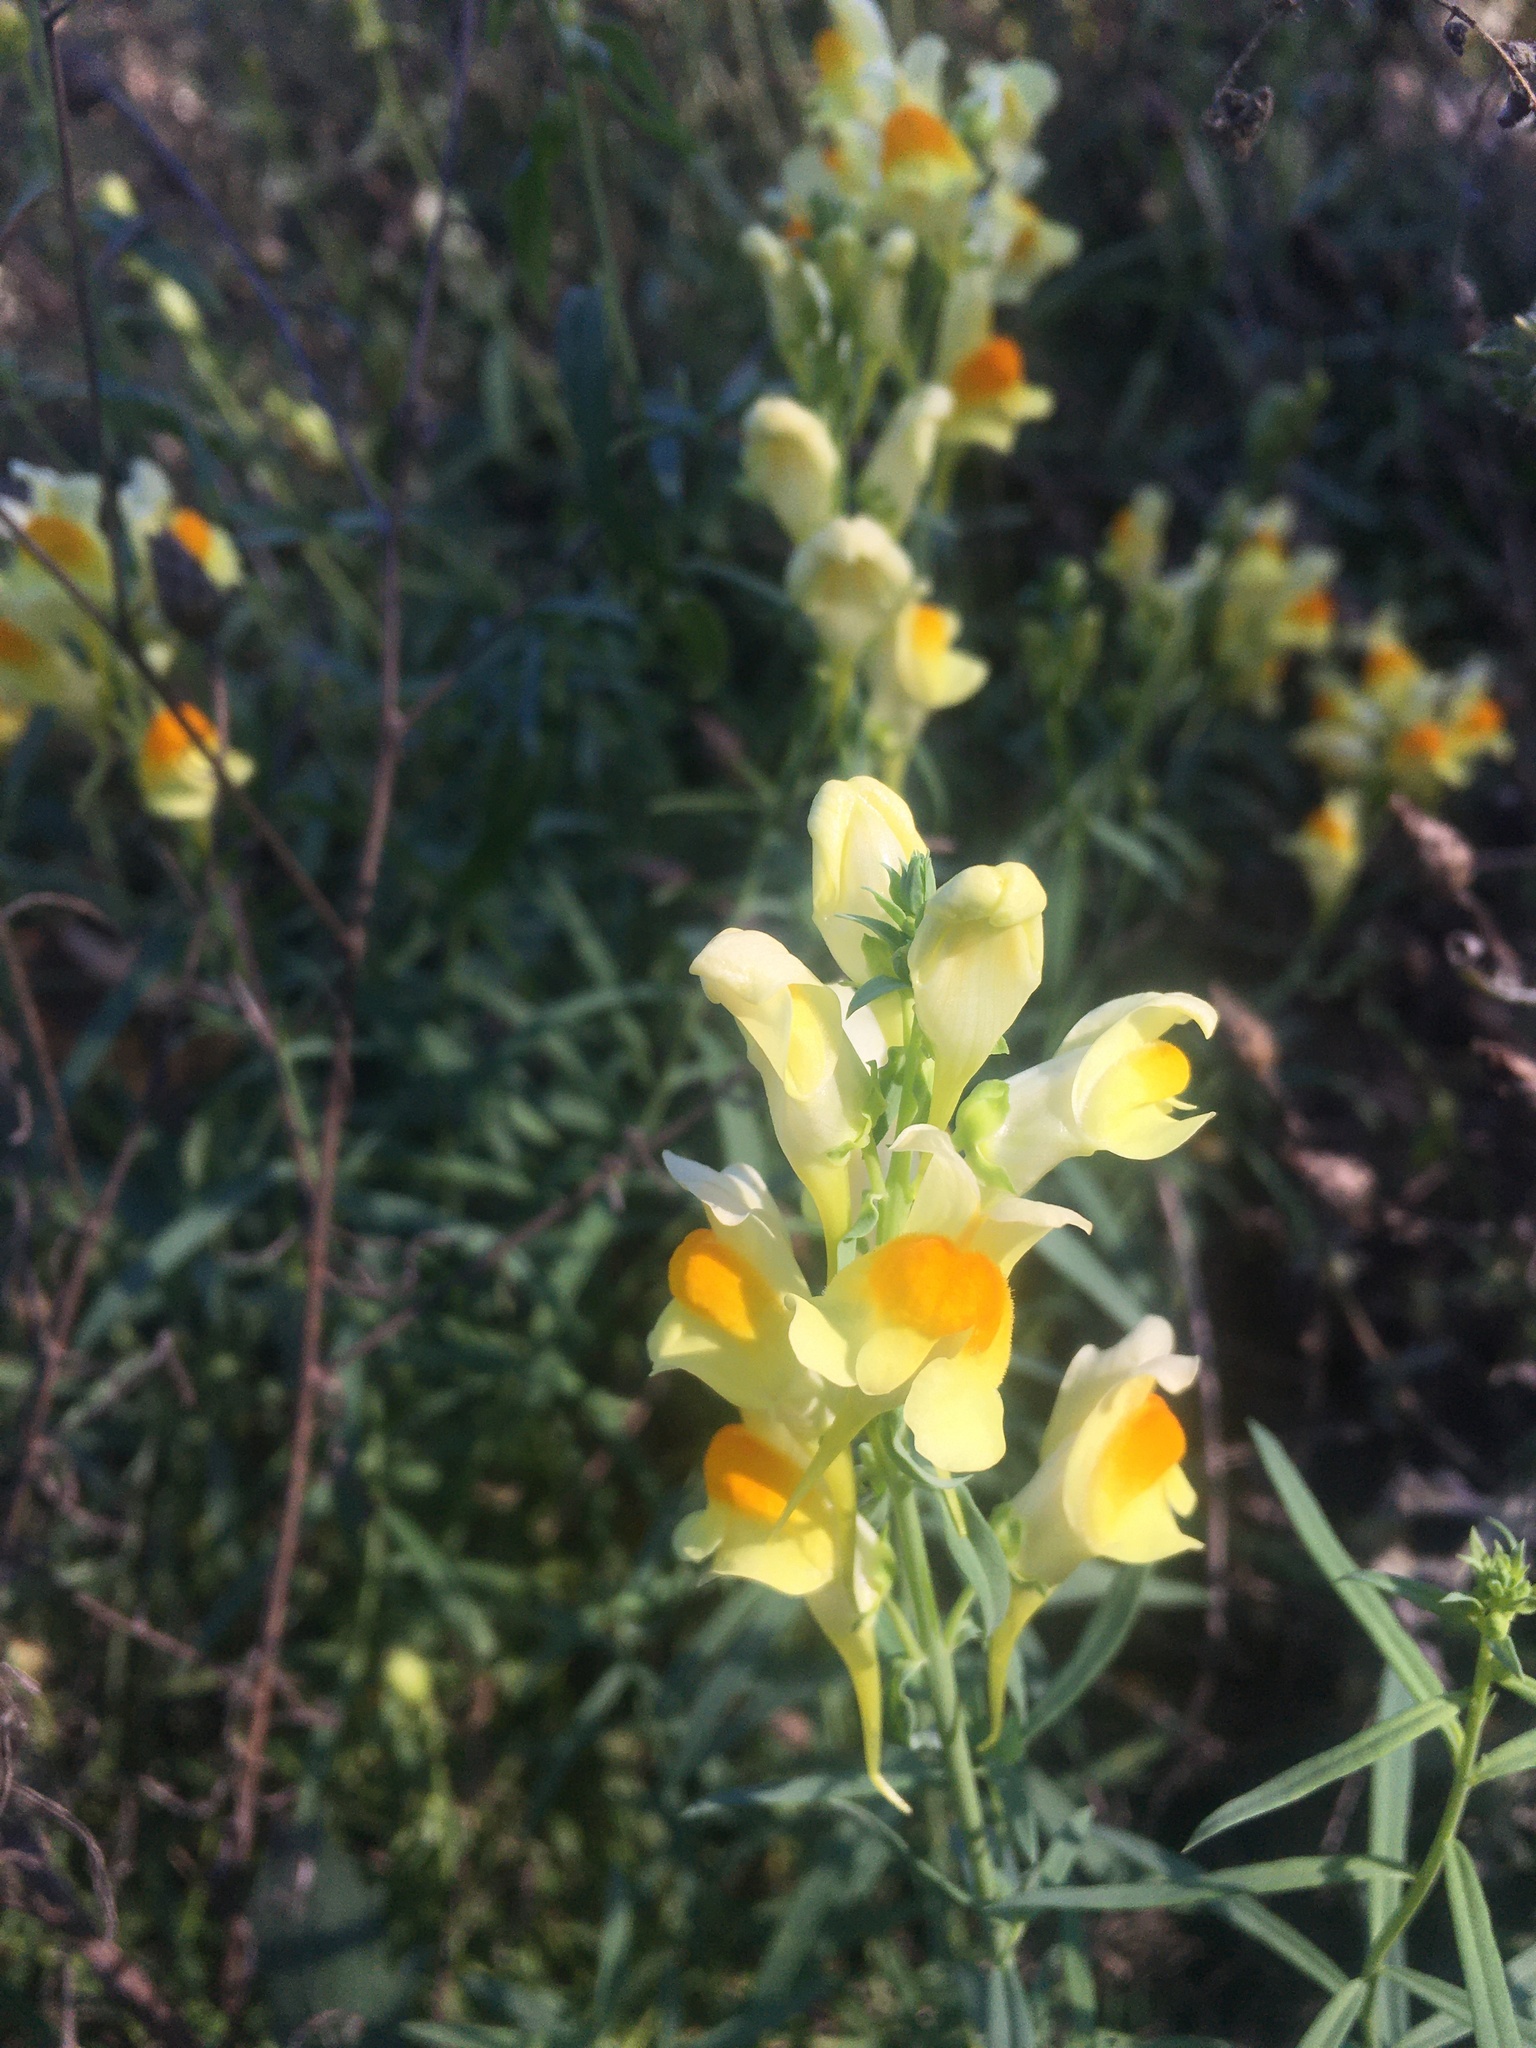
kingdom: Plantae
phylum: Tracheophyta
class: Magnoliopsida
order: Lamiales
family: Plantaginaceae
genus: Linaria
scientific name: Linaria vulgaris
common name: Butter and eggs
